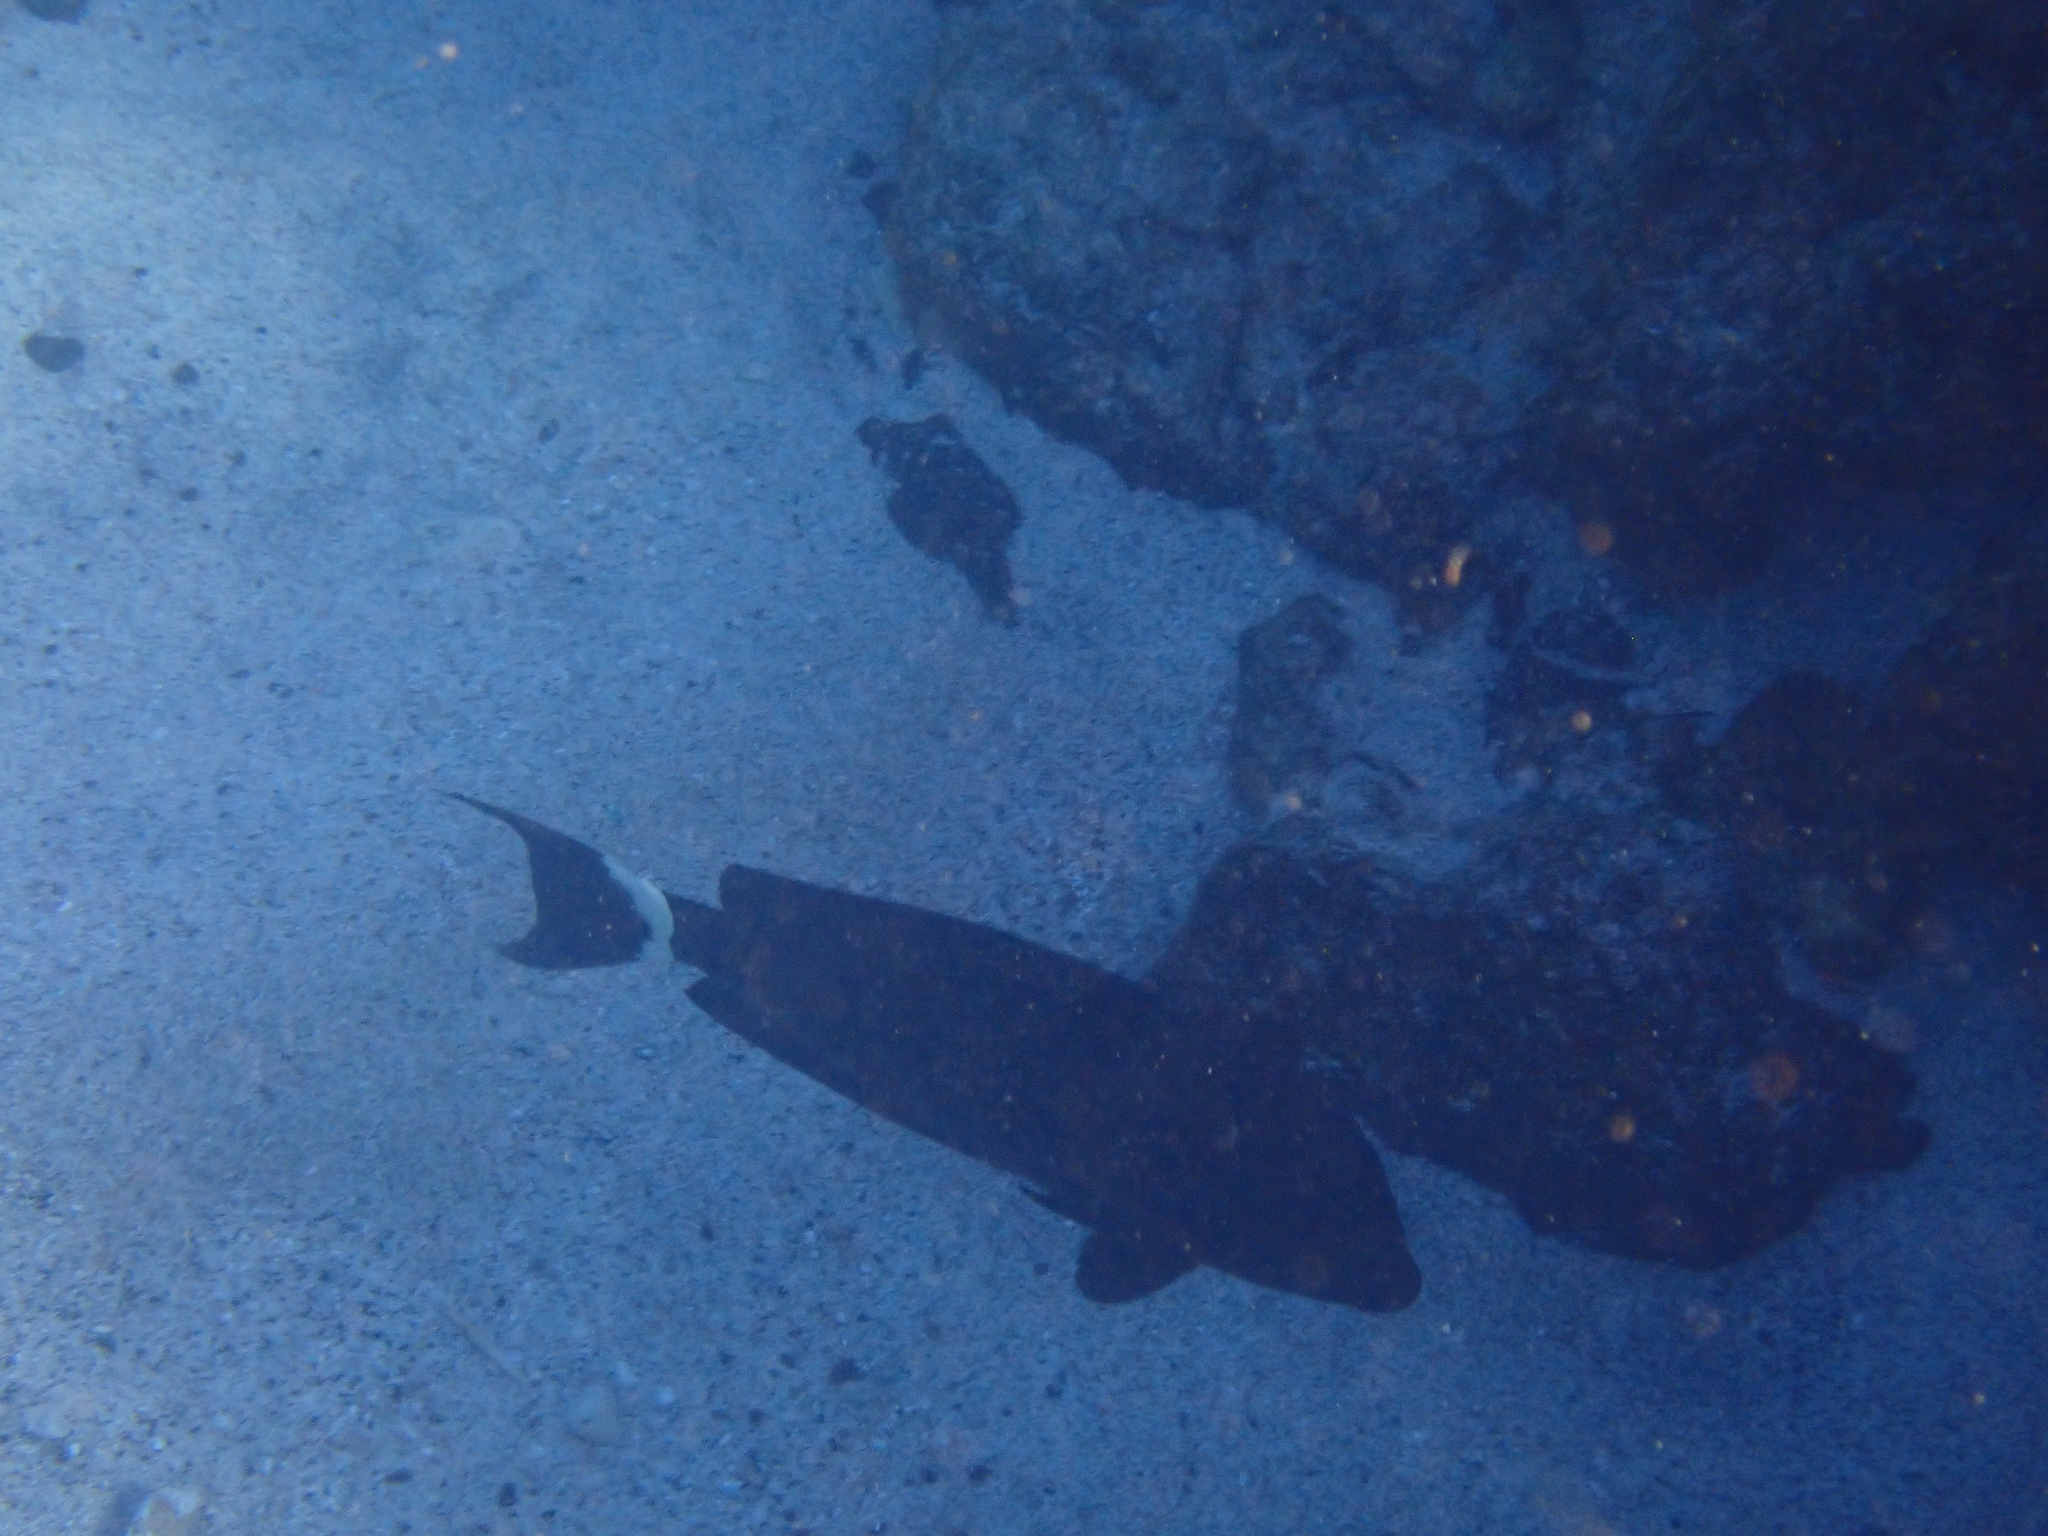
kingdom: Animalia
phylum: Chordata
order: Perciformes
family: Acanthuridae
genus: Acanthurus
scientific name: Acanthurus blochii
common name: Blue-banded pualu
